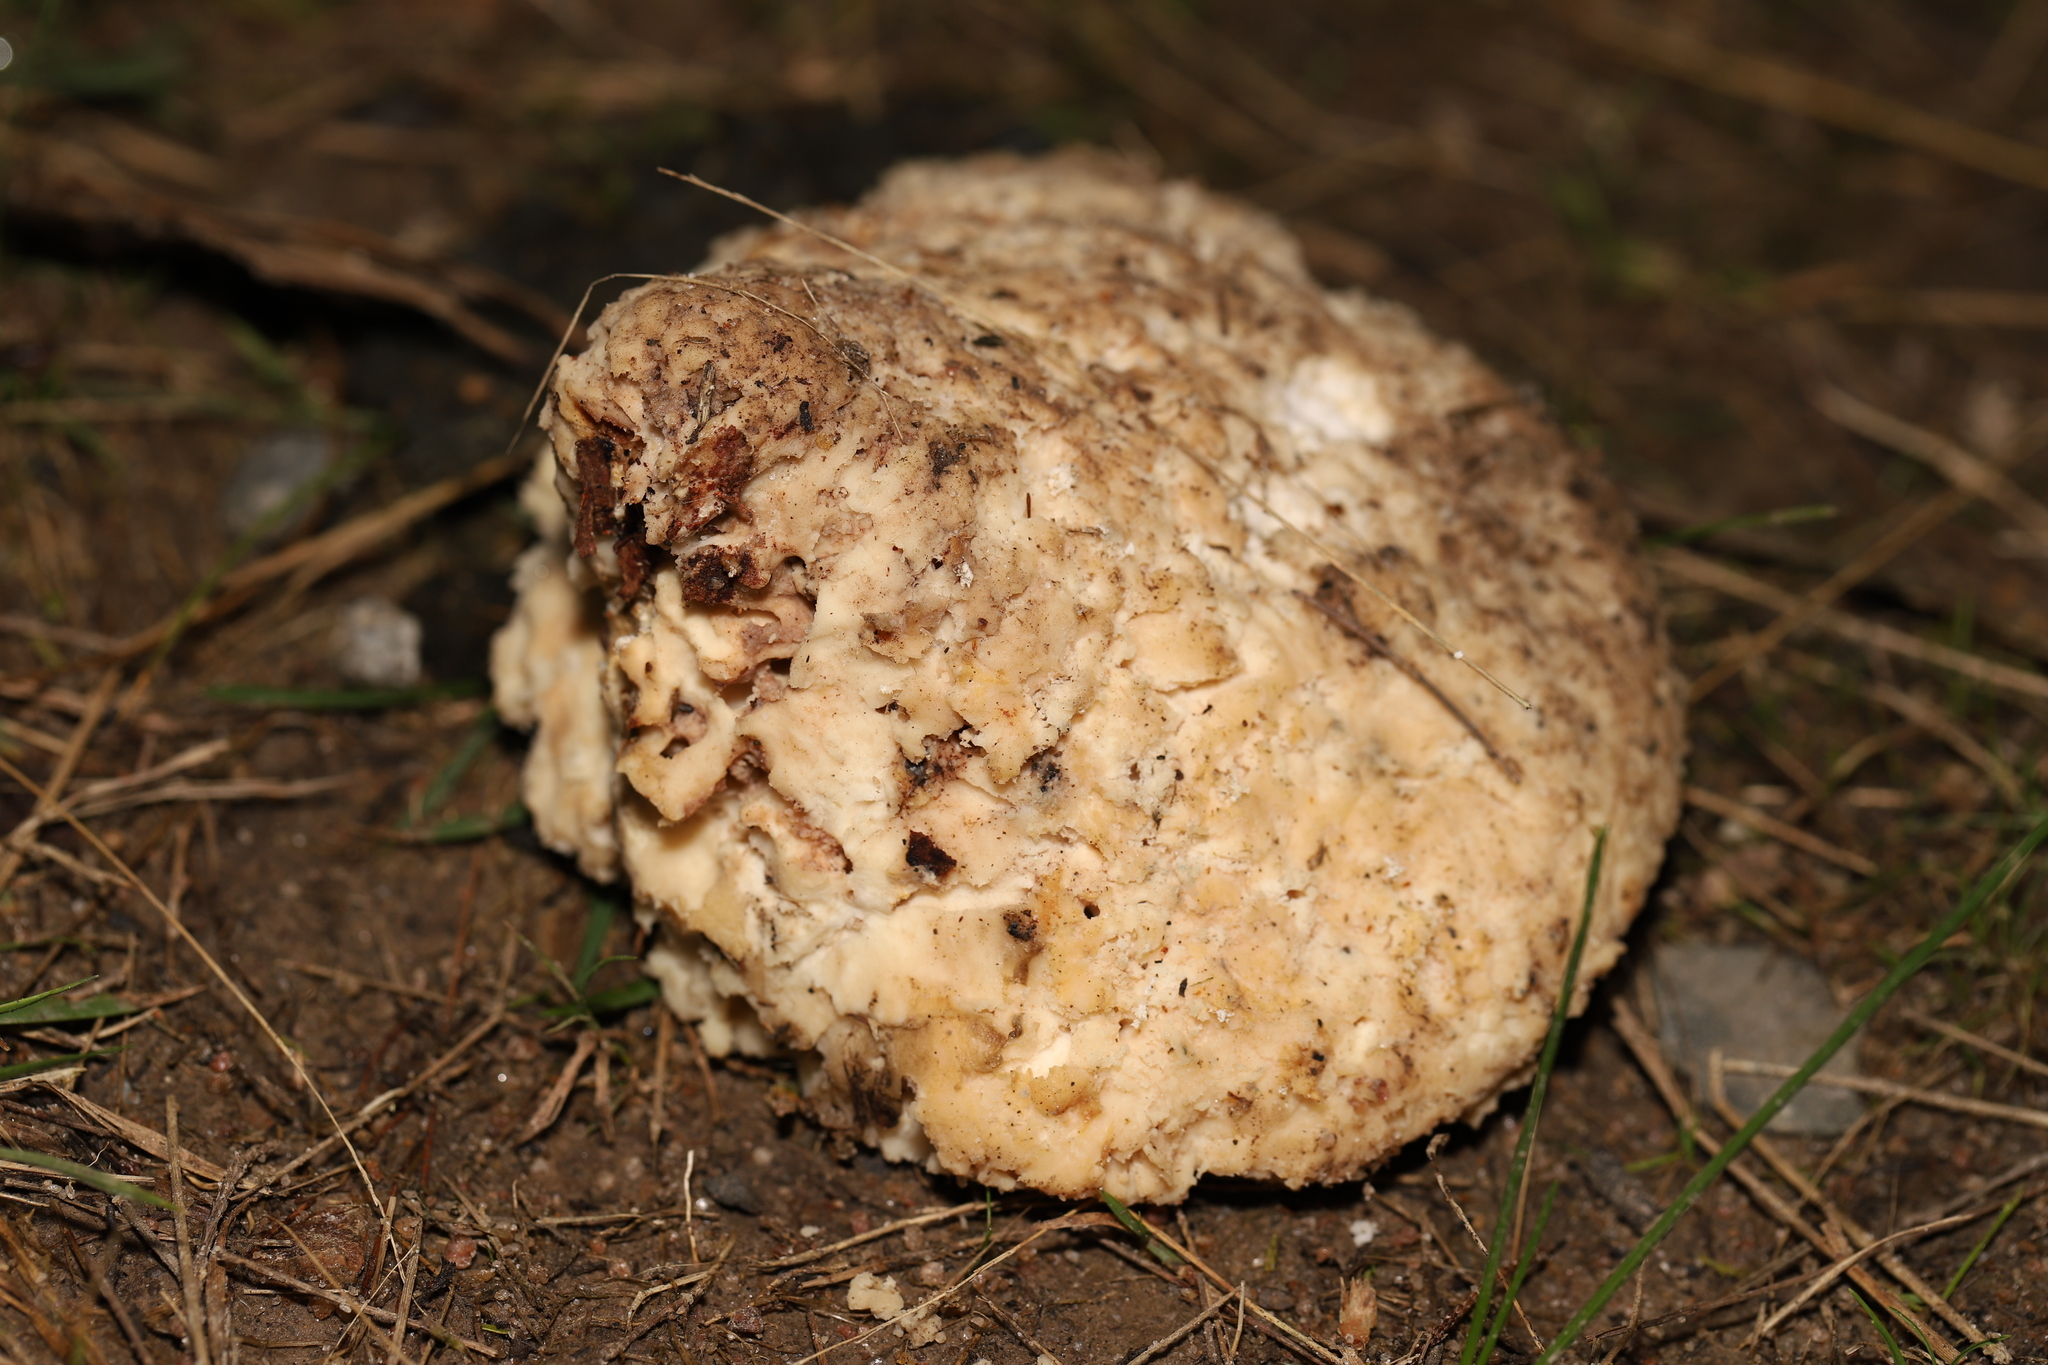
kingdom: Fungi
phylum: Basidiomycota
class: Agaricomycetes
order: Polyporales
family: Laetiporaceae
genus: Laetiporus
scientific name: Laetiporus portentosus
